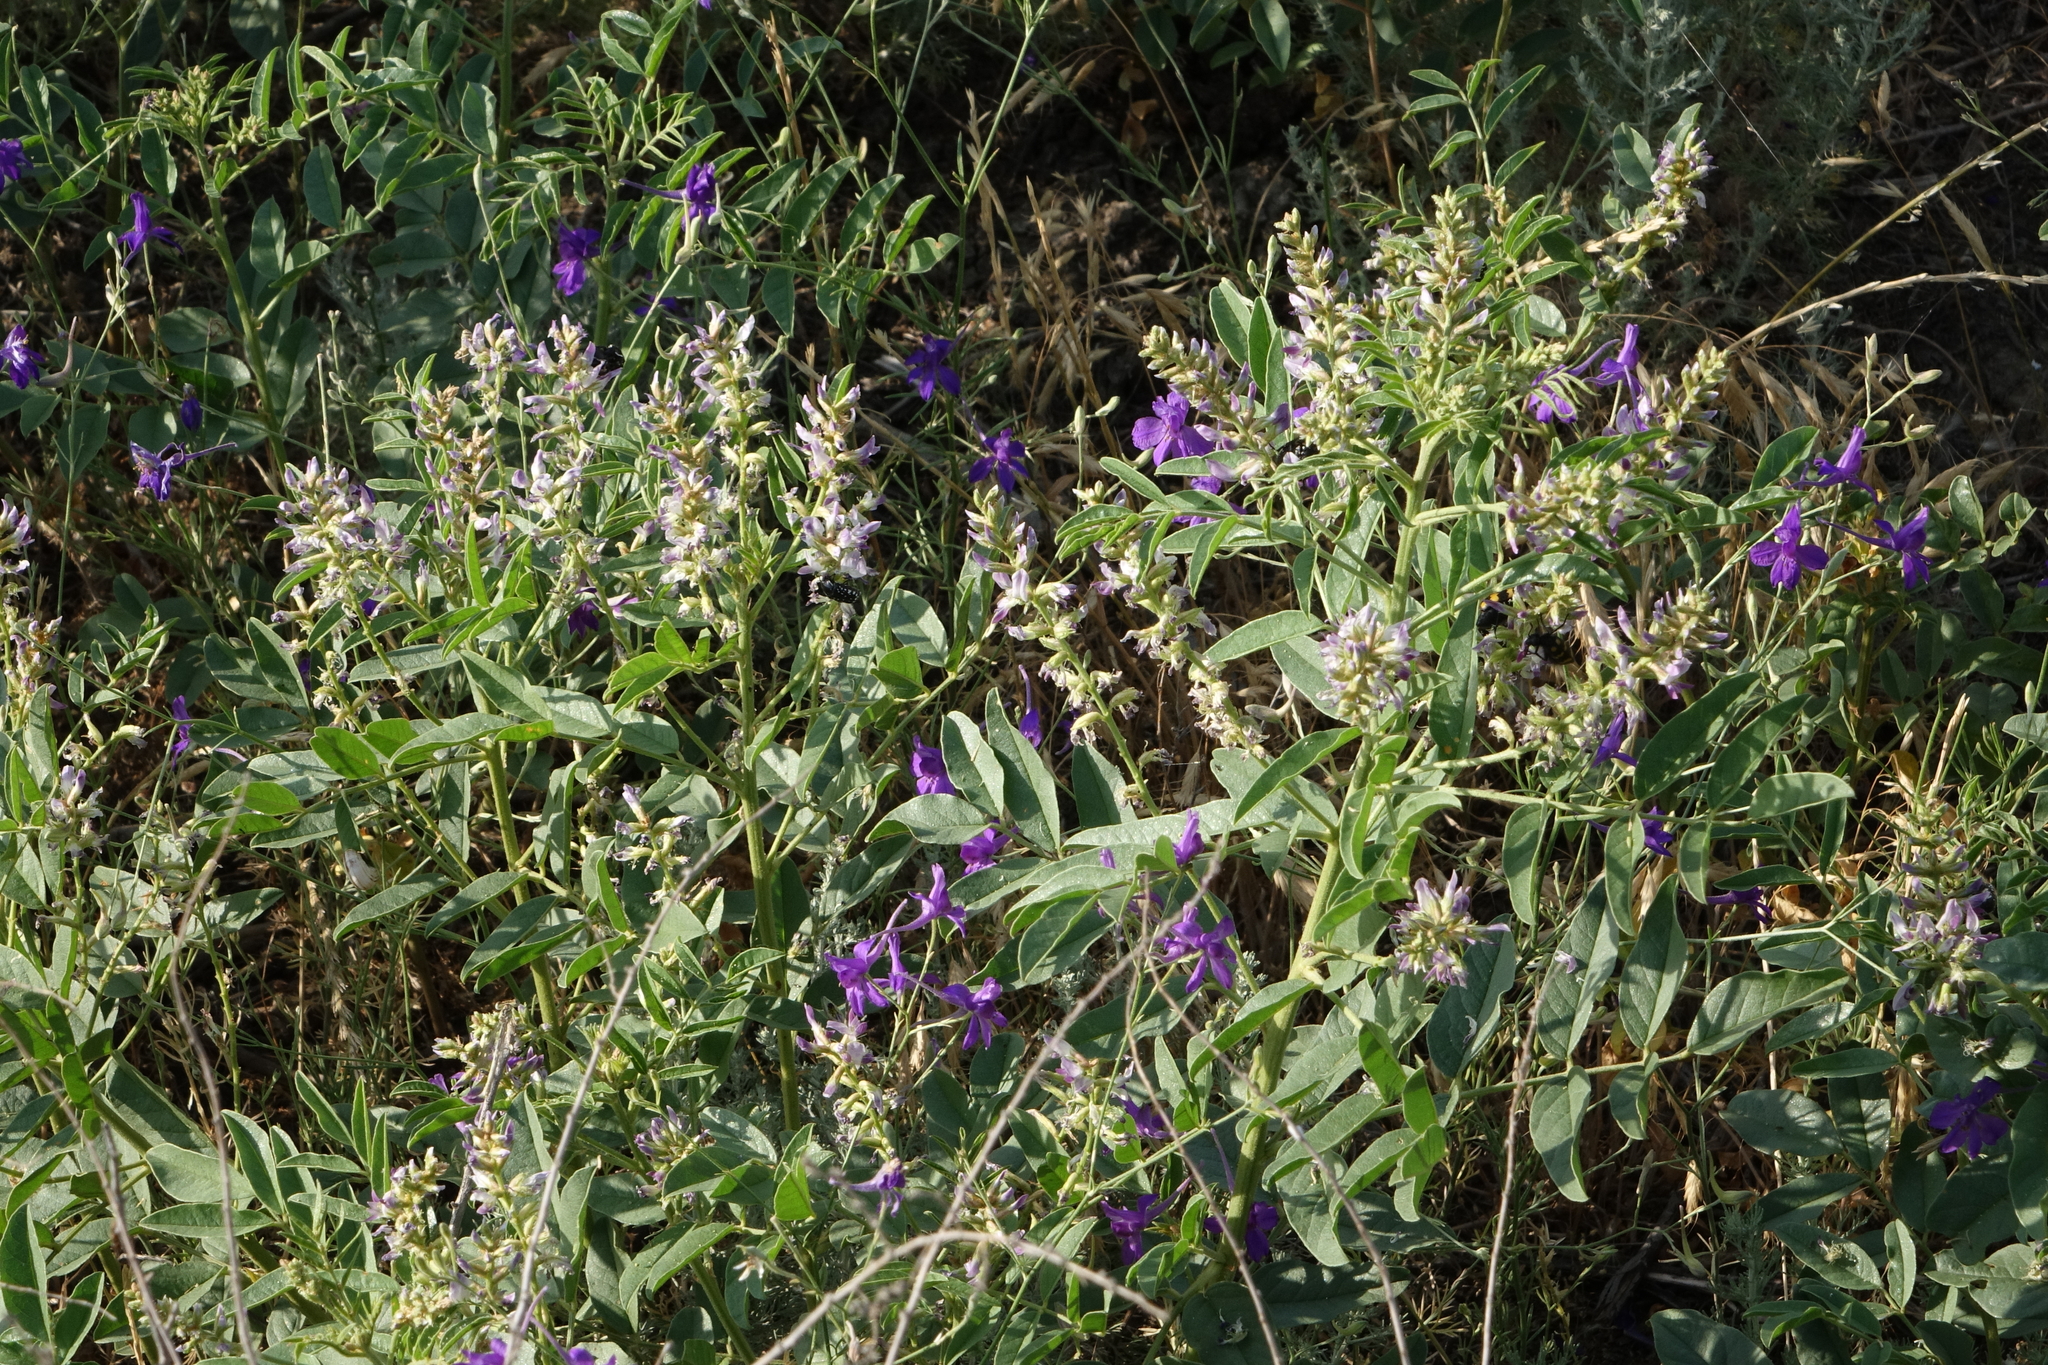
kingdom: Plantae
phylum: Tracheophyta
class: Magnoliopsida
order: Fabales
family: Fabaceae
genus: Glycyrrhiza
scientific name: Glycyrrhiza glabra
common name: Liquorice
